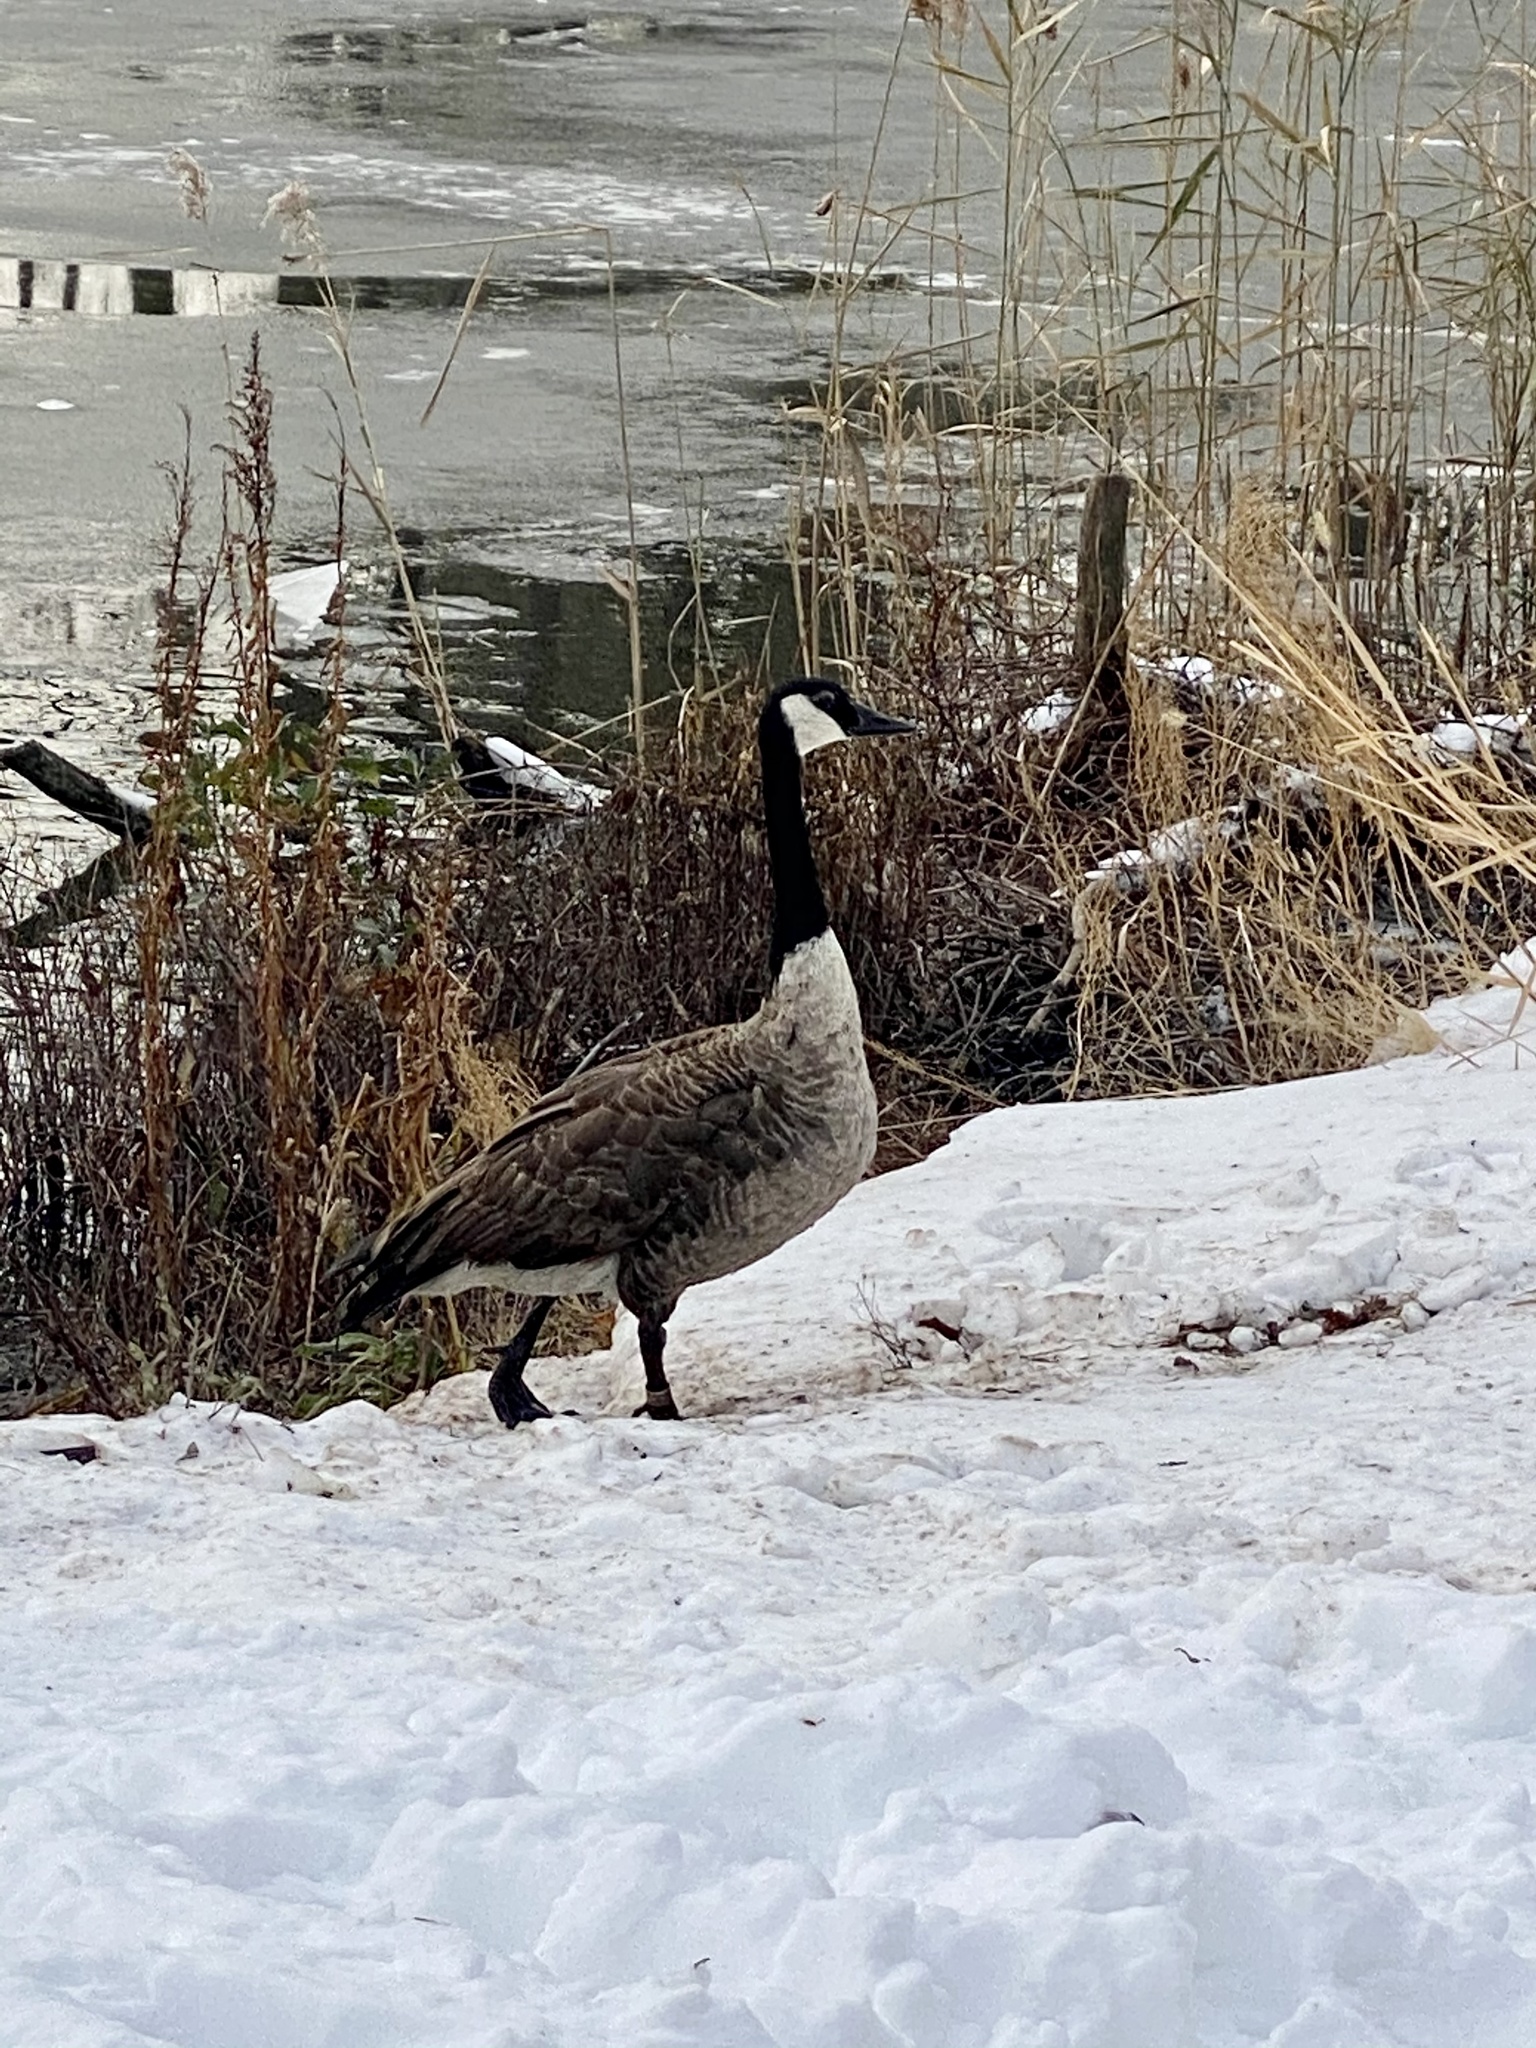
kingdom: Animalia
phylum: Chordata
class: Aves
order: Anseriformes
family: Anatidae
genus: Branta
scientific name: Branta canadensis
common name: Canada goose
